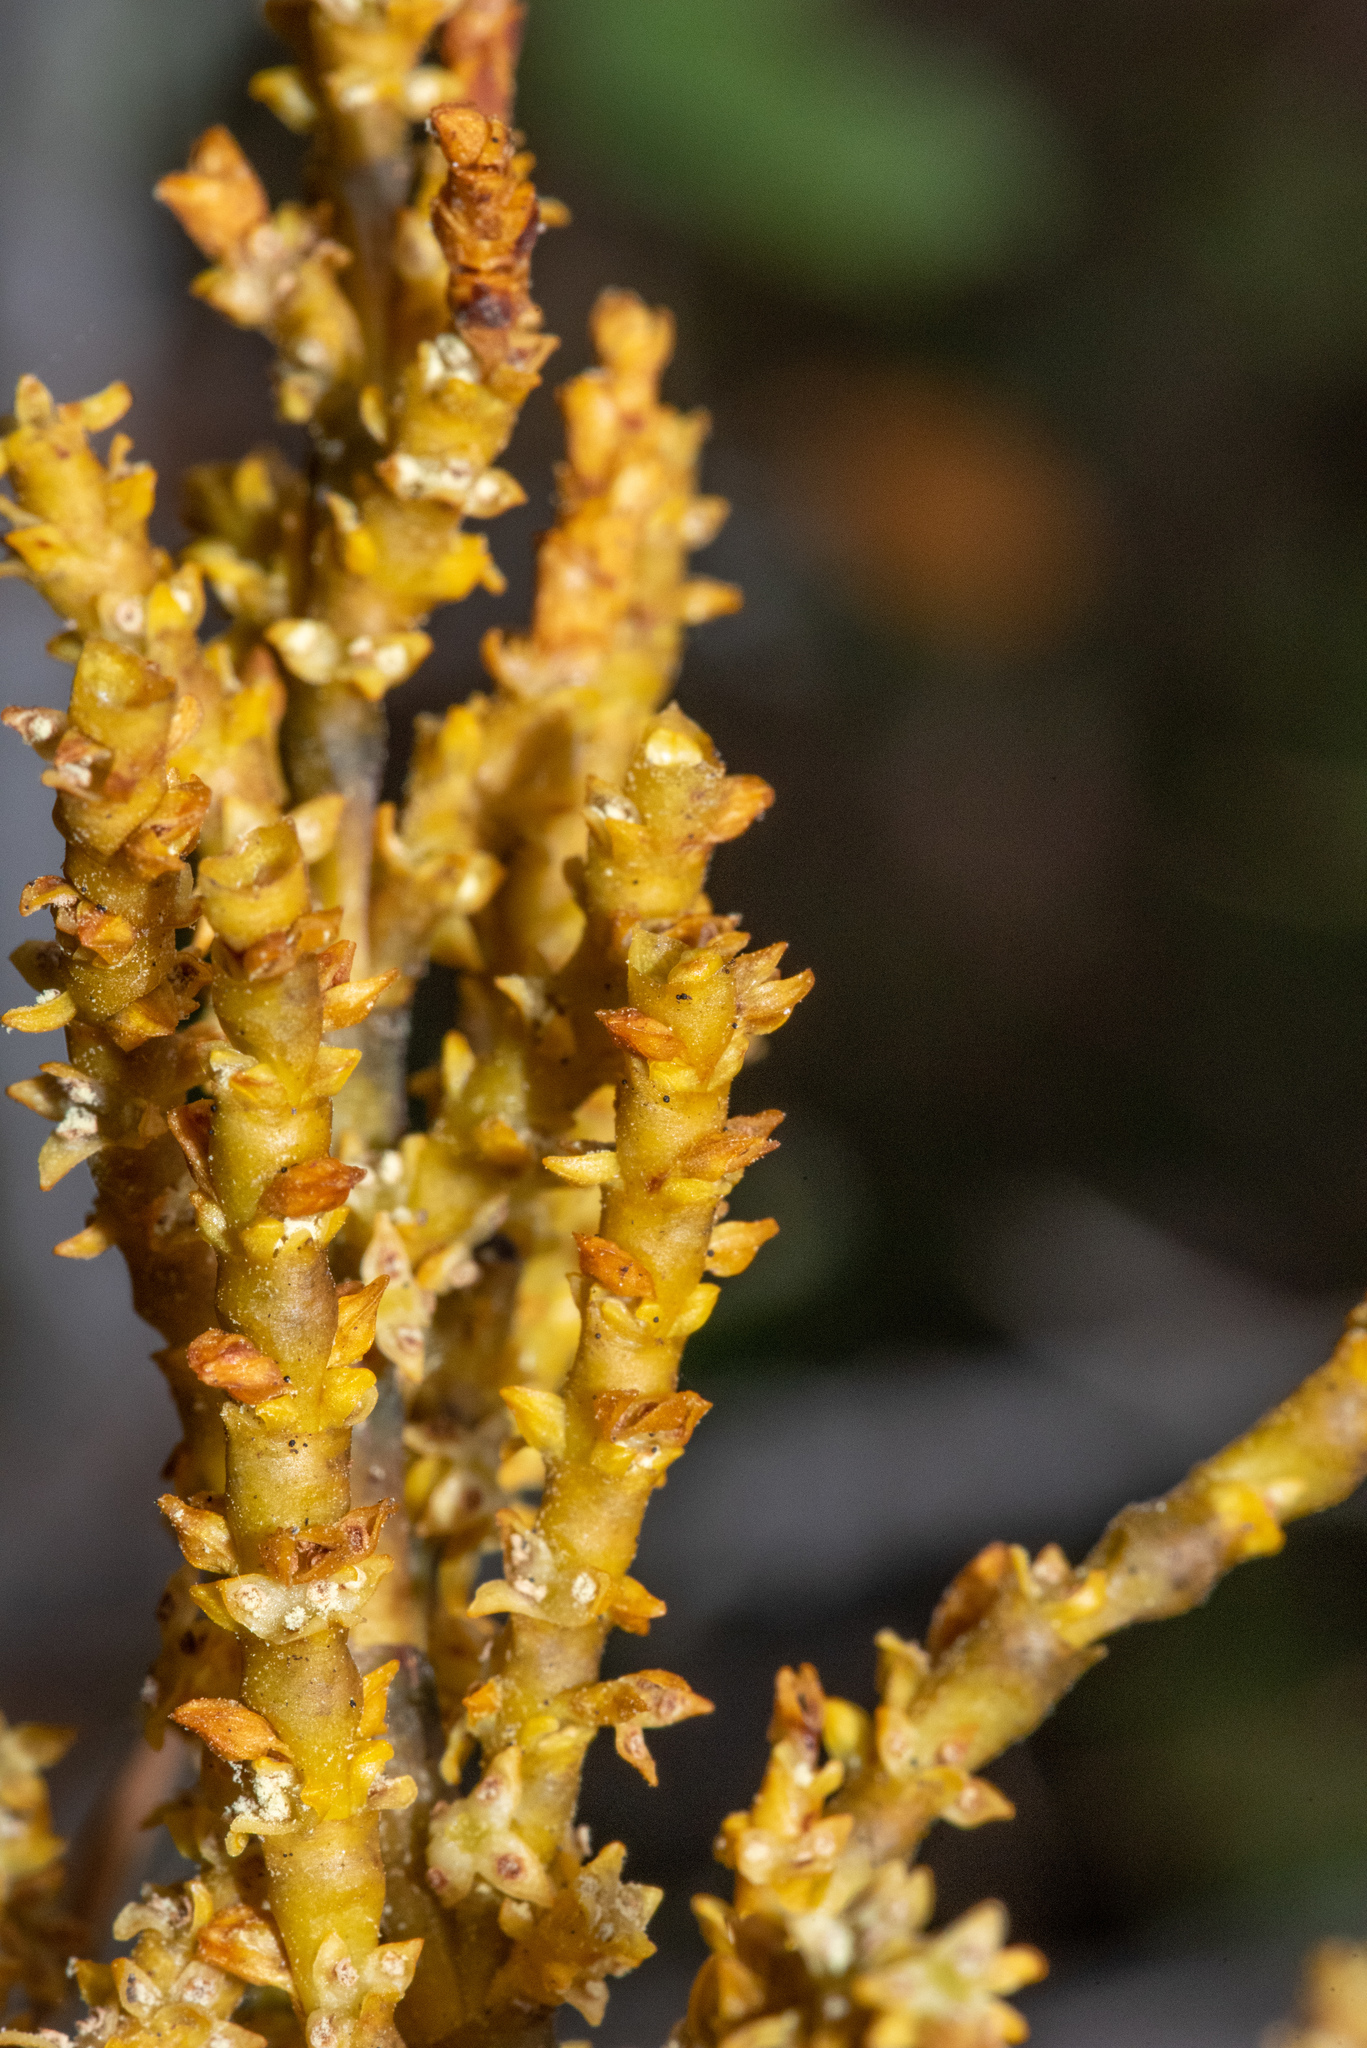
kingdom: Plantae
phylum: Tracheophyta
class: Magnoliopsida
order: Santalales
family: Viscaceae
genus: Arceuthobium
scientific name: Arceuthobium campylopodum
